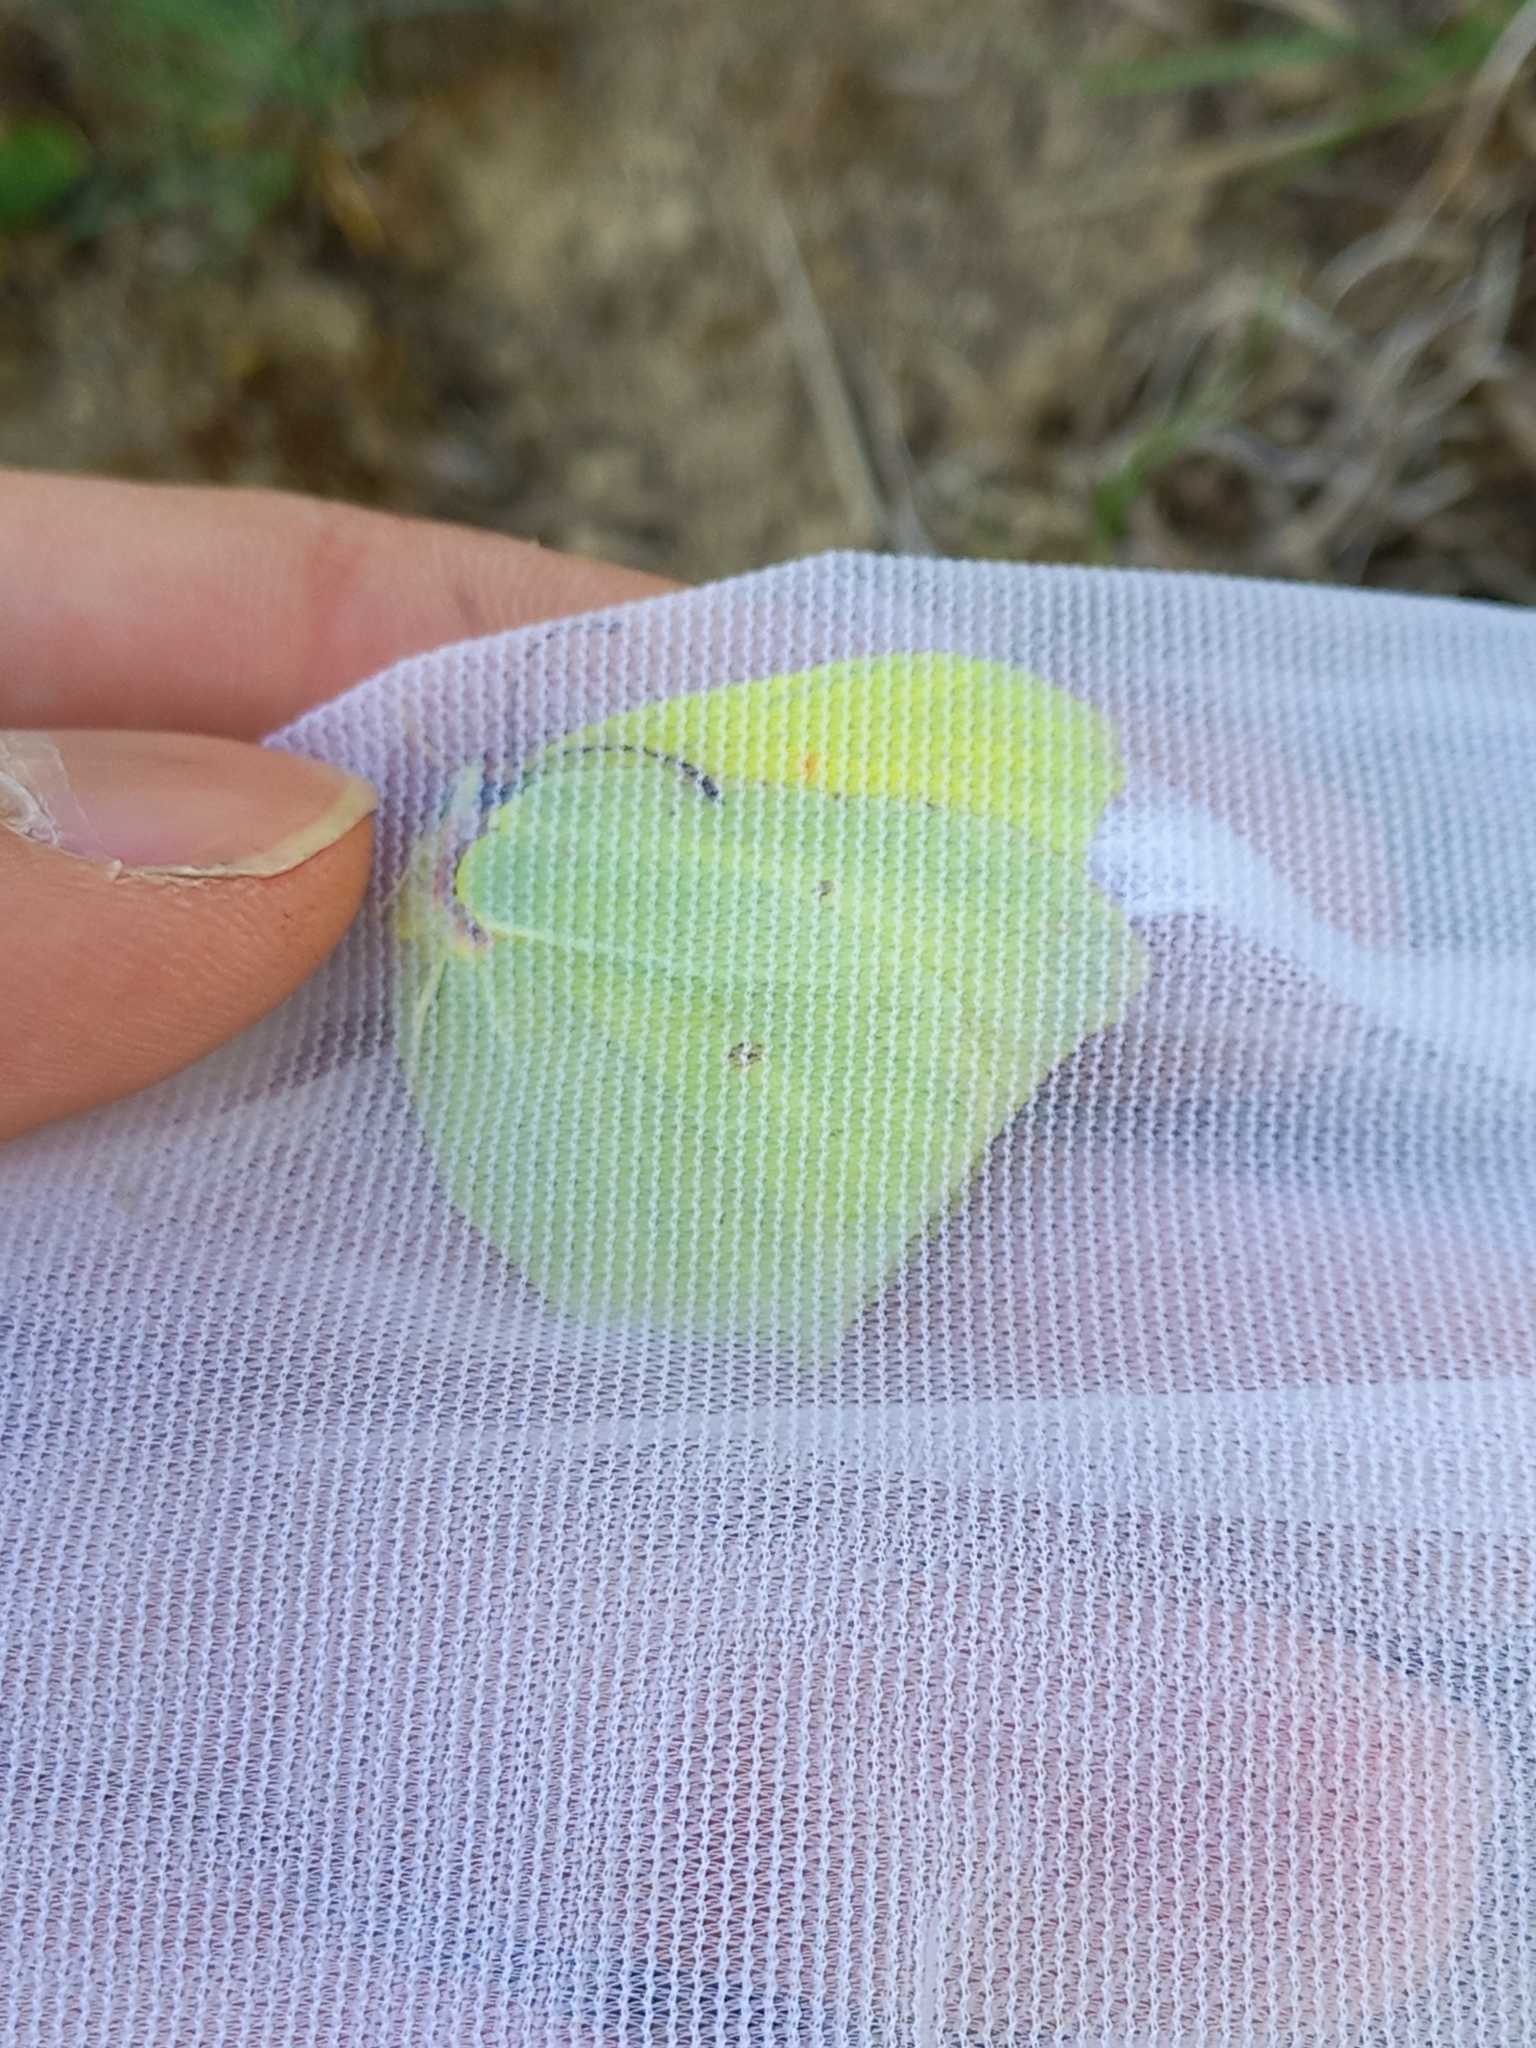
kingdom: Animalia
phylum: Arthropoda
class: Insecta
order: Lepidoptera
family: Pieridae
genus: Gonepteryx
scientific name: Gonepteryx rhamni
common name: Brimstone
